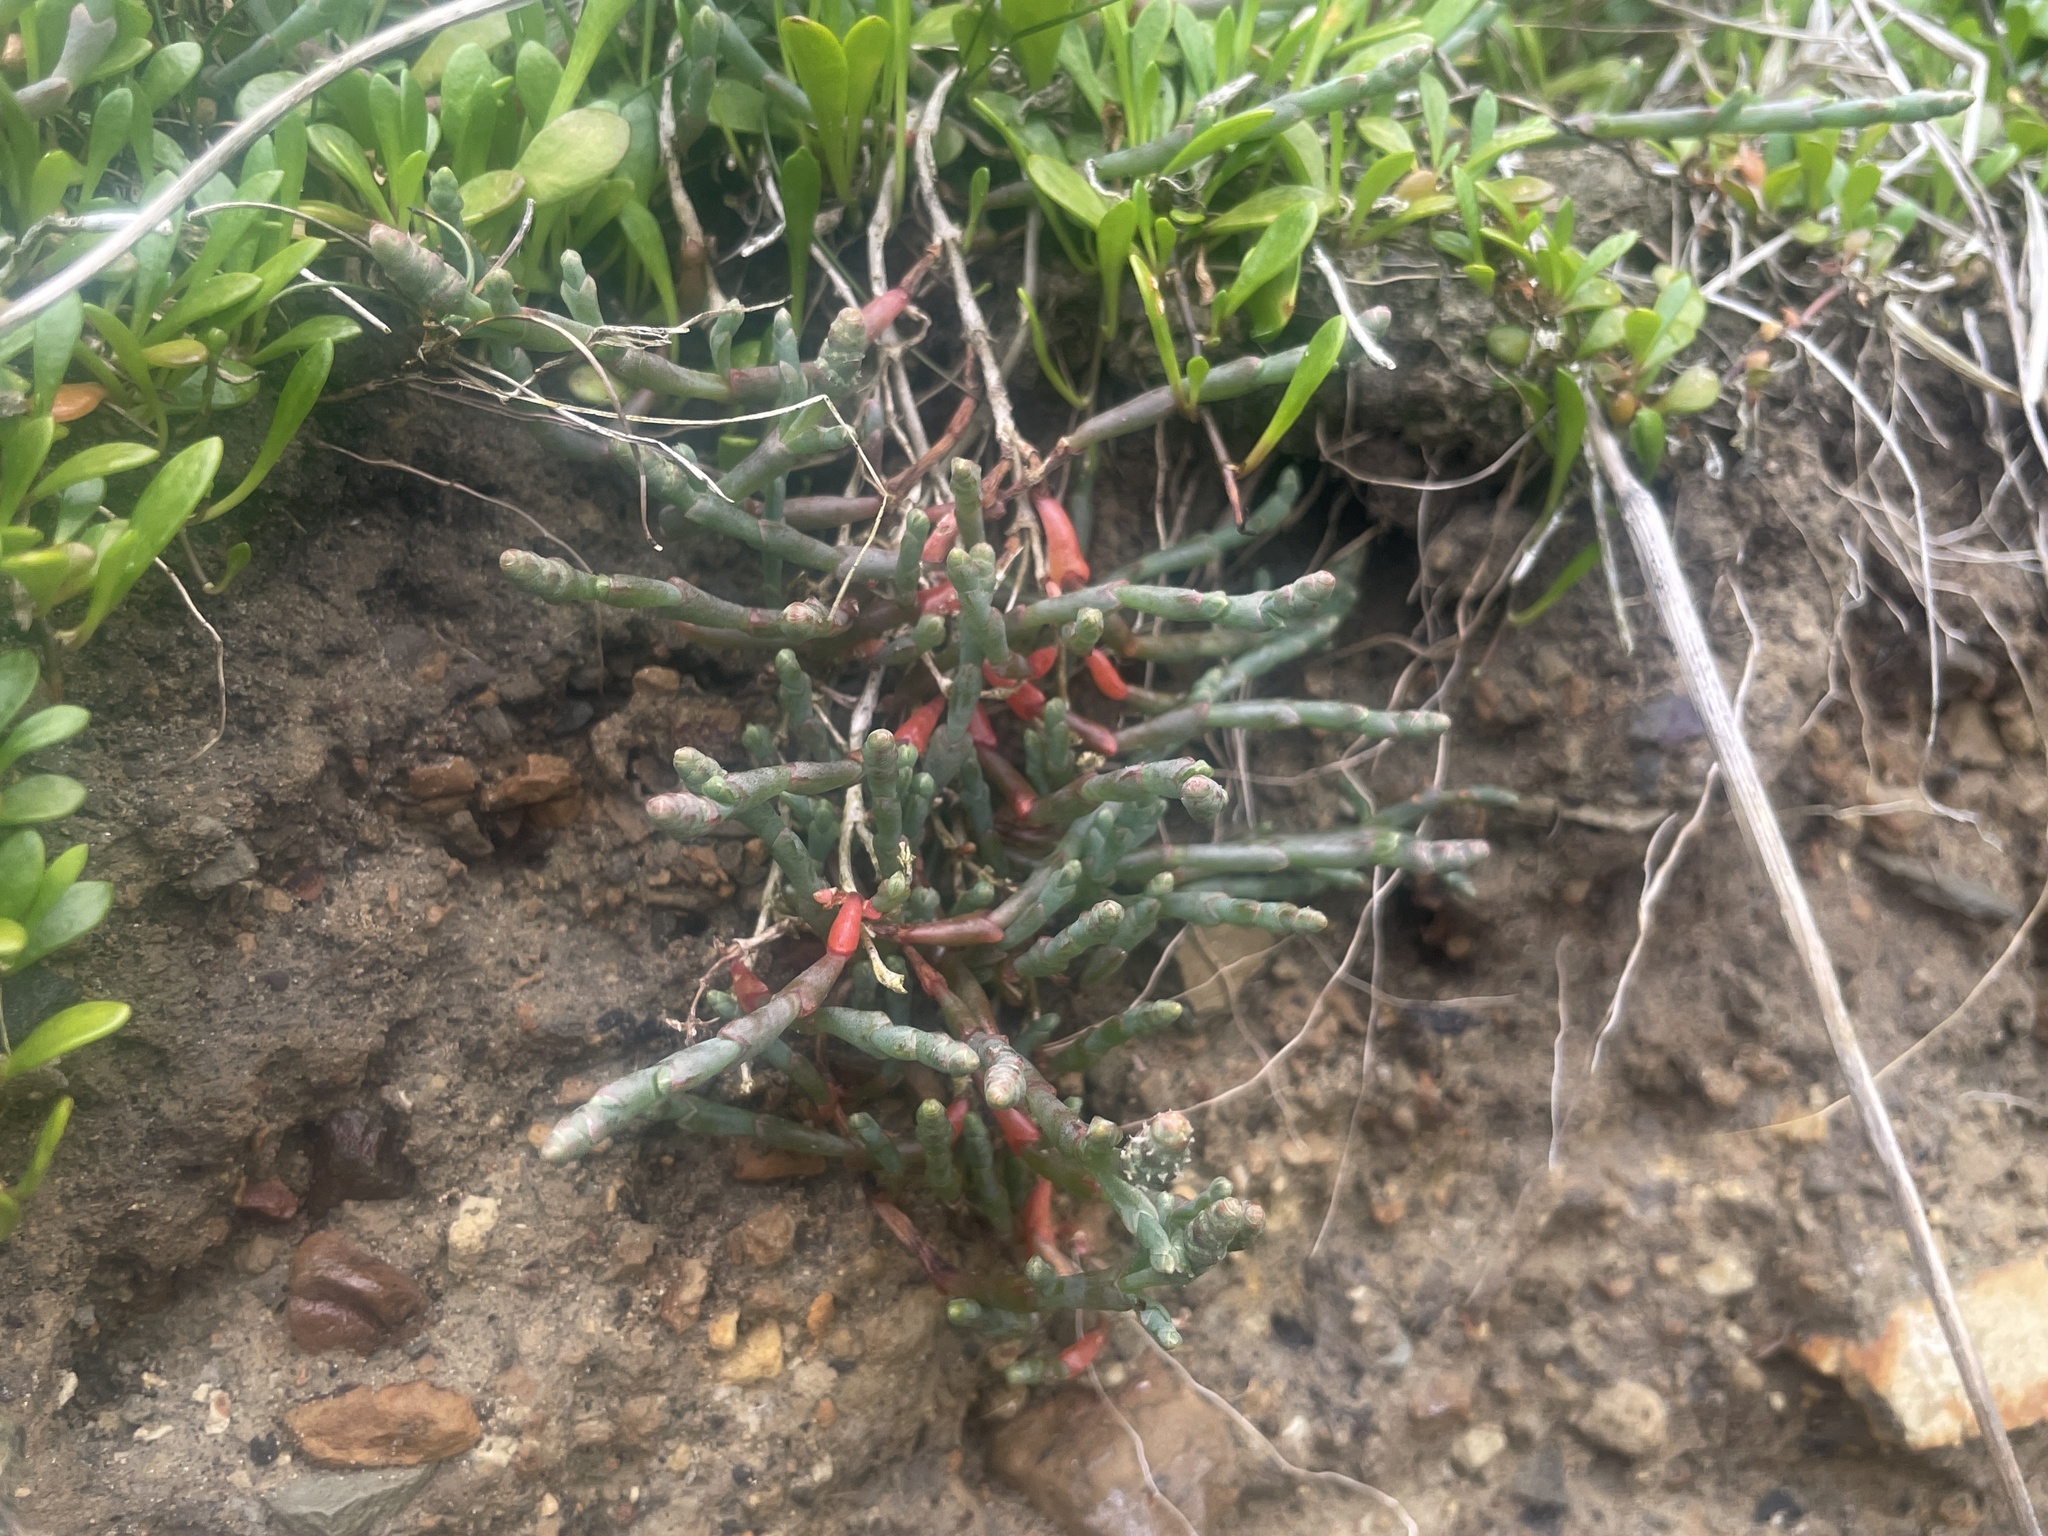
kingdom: Plantae
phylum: Tracheophyta
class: Magnoliopsida
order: Caryophyllales
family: Amaranthaceae
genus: Salicornia
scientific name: Salicornia quinqueflora
